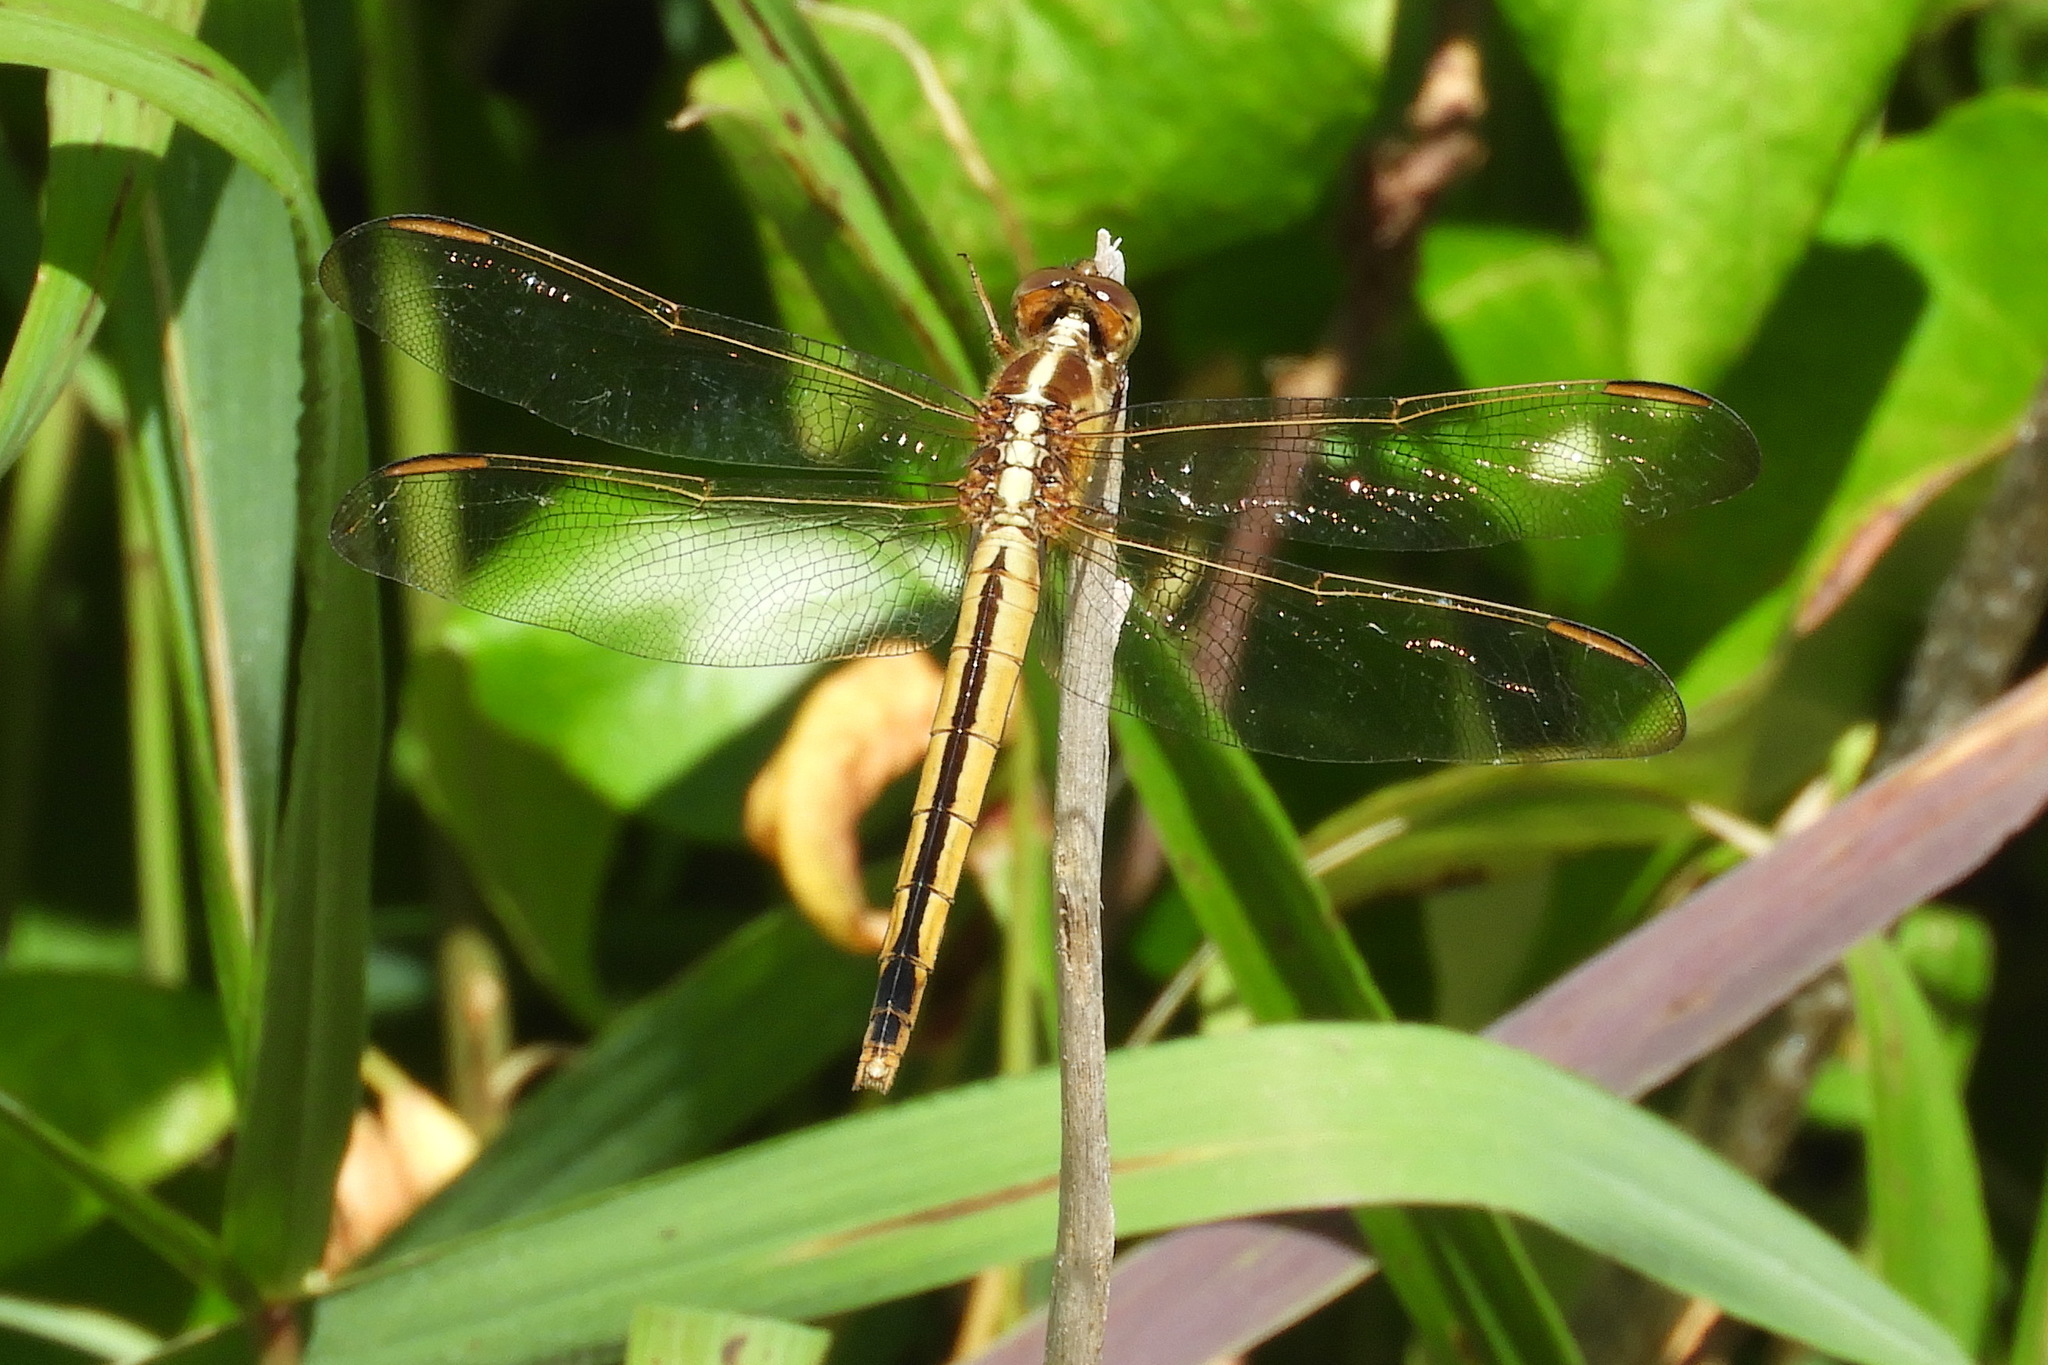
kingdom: Animalia
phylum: Arthropoda
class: Insecta
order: Odonata
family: Libellulidae
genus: Libellula
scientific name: Libellula needhami
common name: Needham's skimmer
